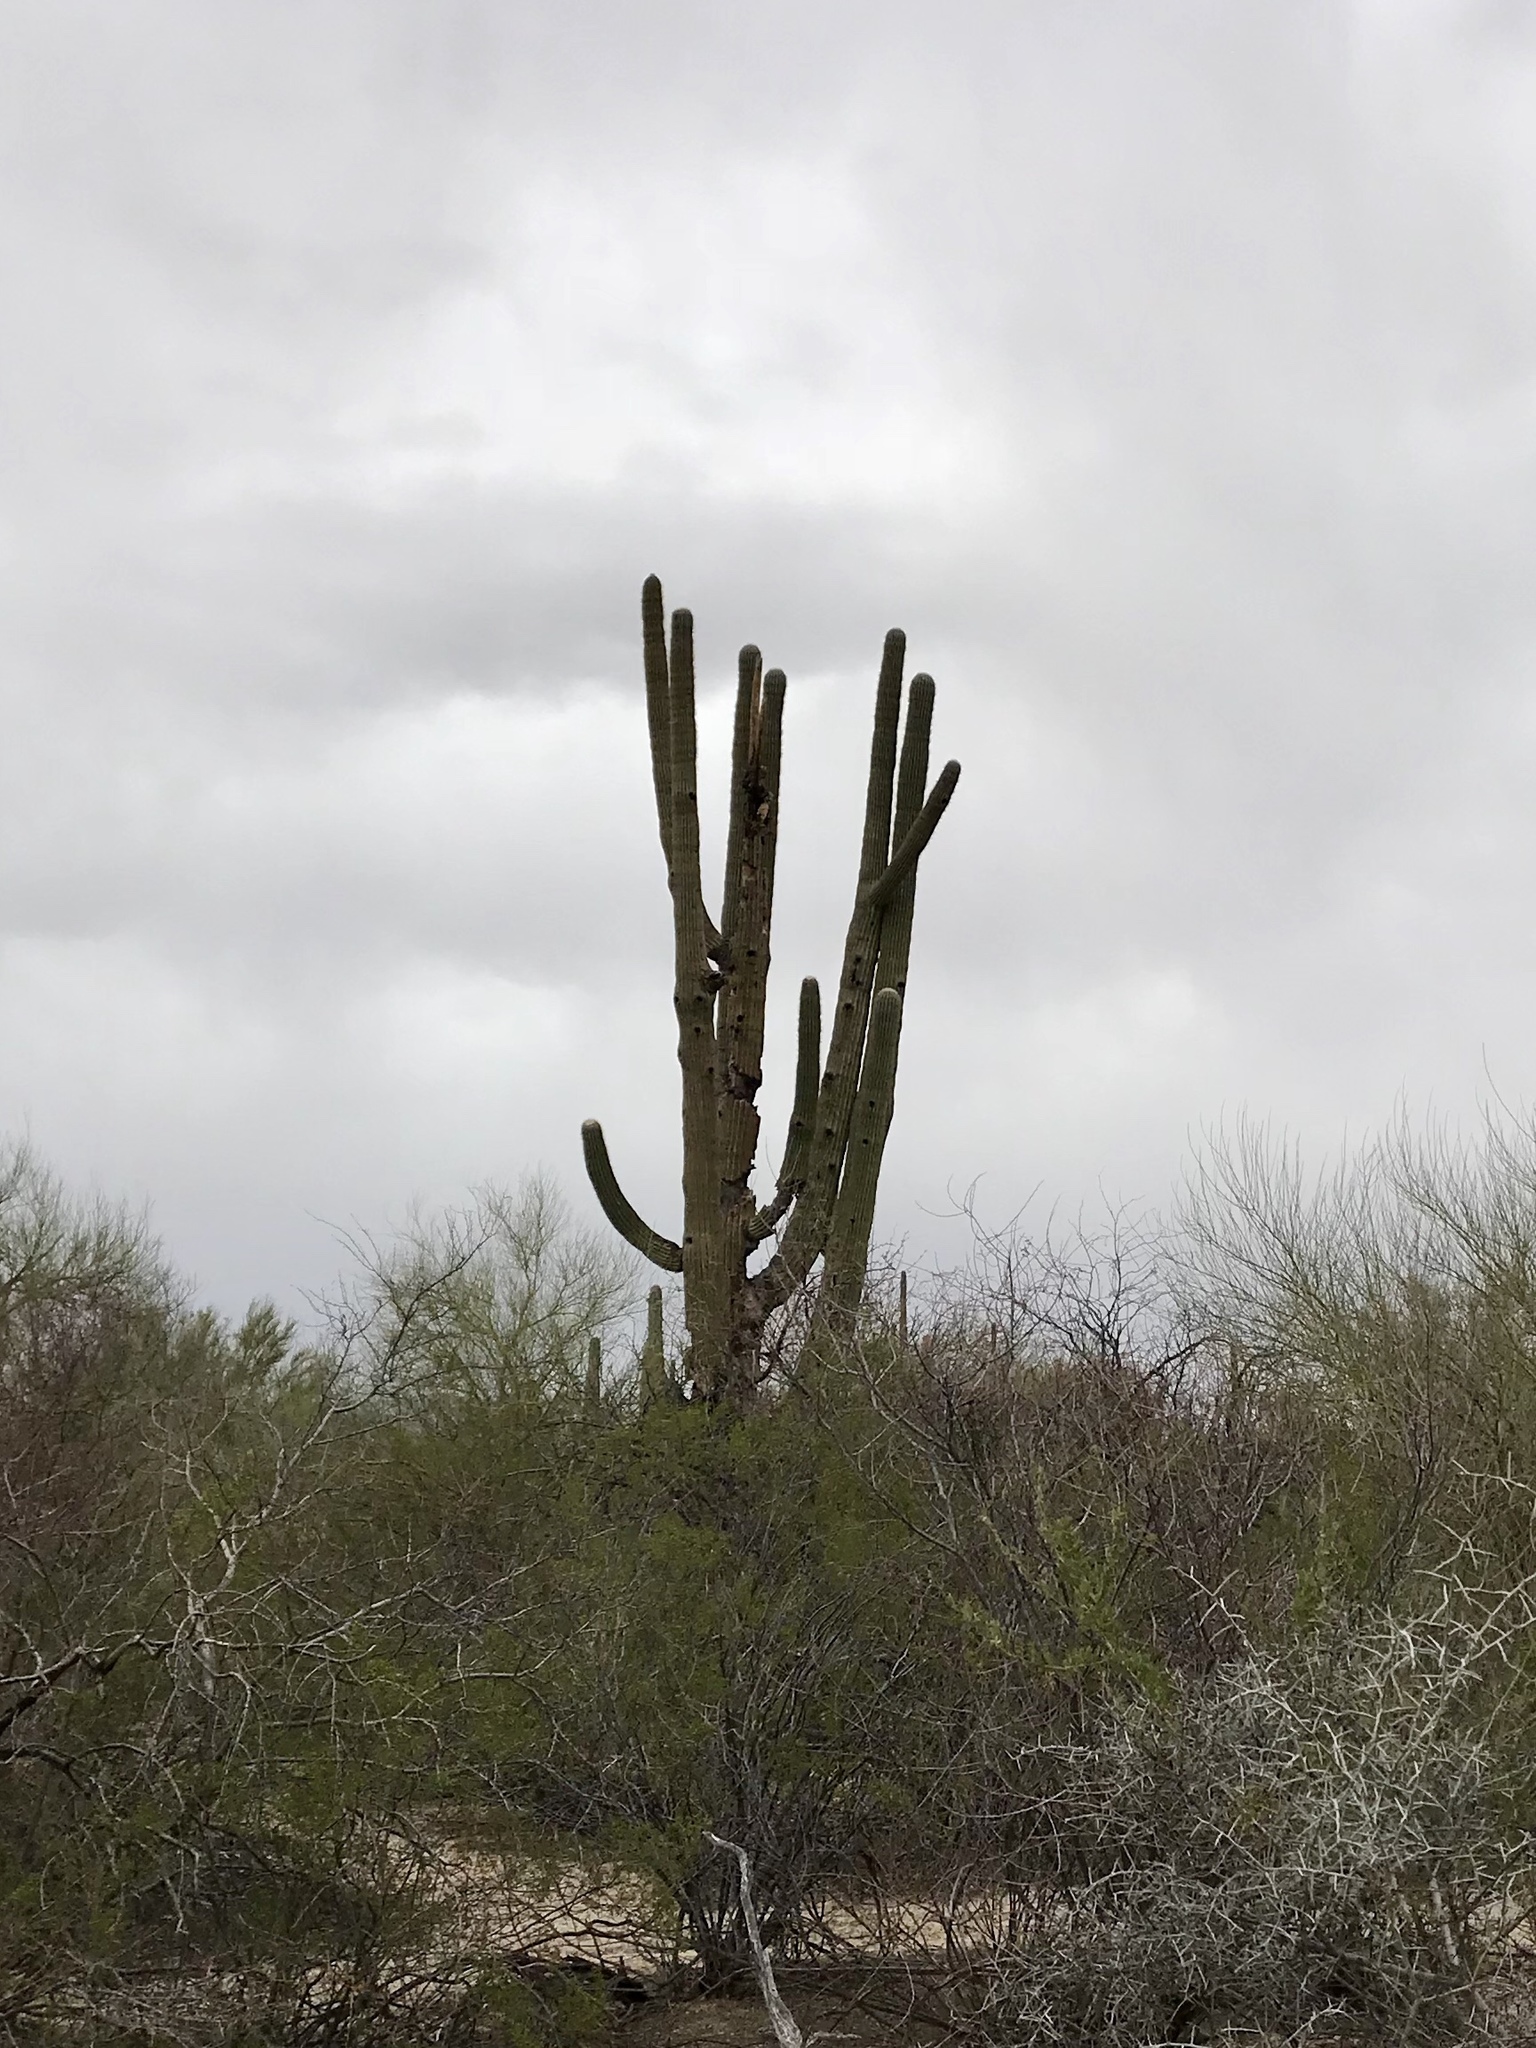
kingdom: Plantae
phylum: Tracheophyta
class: Magnoliopsida
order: Caryophyllales
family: Cactaceae
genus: Carnegiea
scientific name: Carnegiea gigantea
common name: Saguaro
